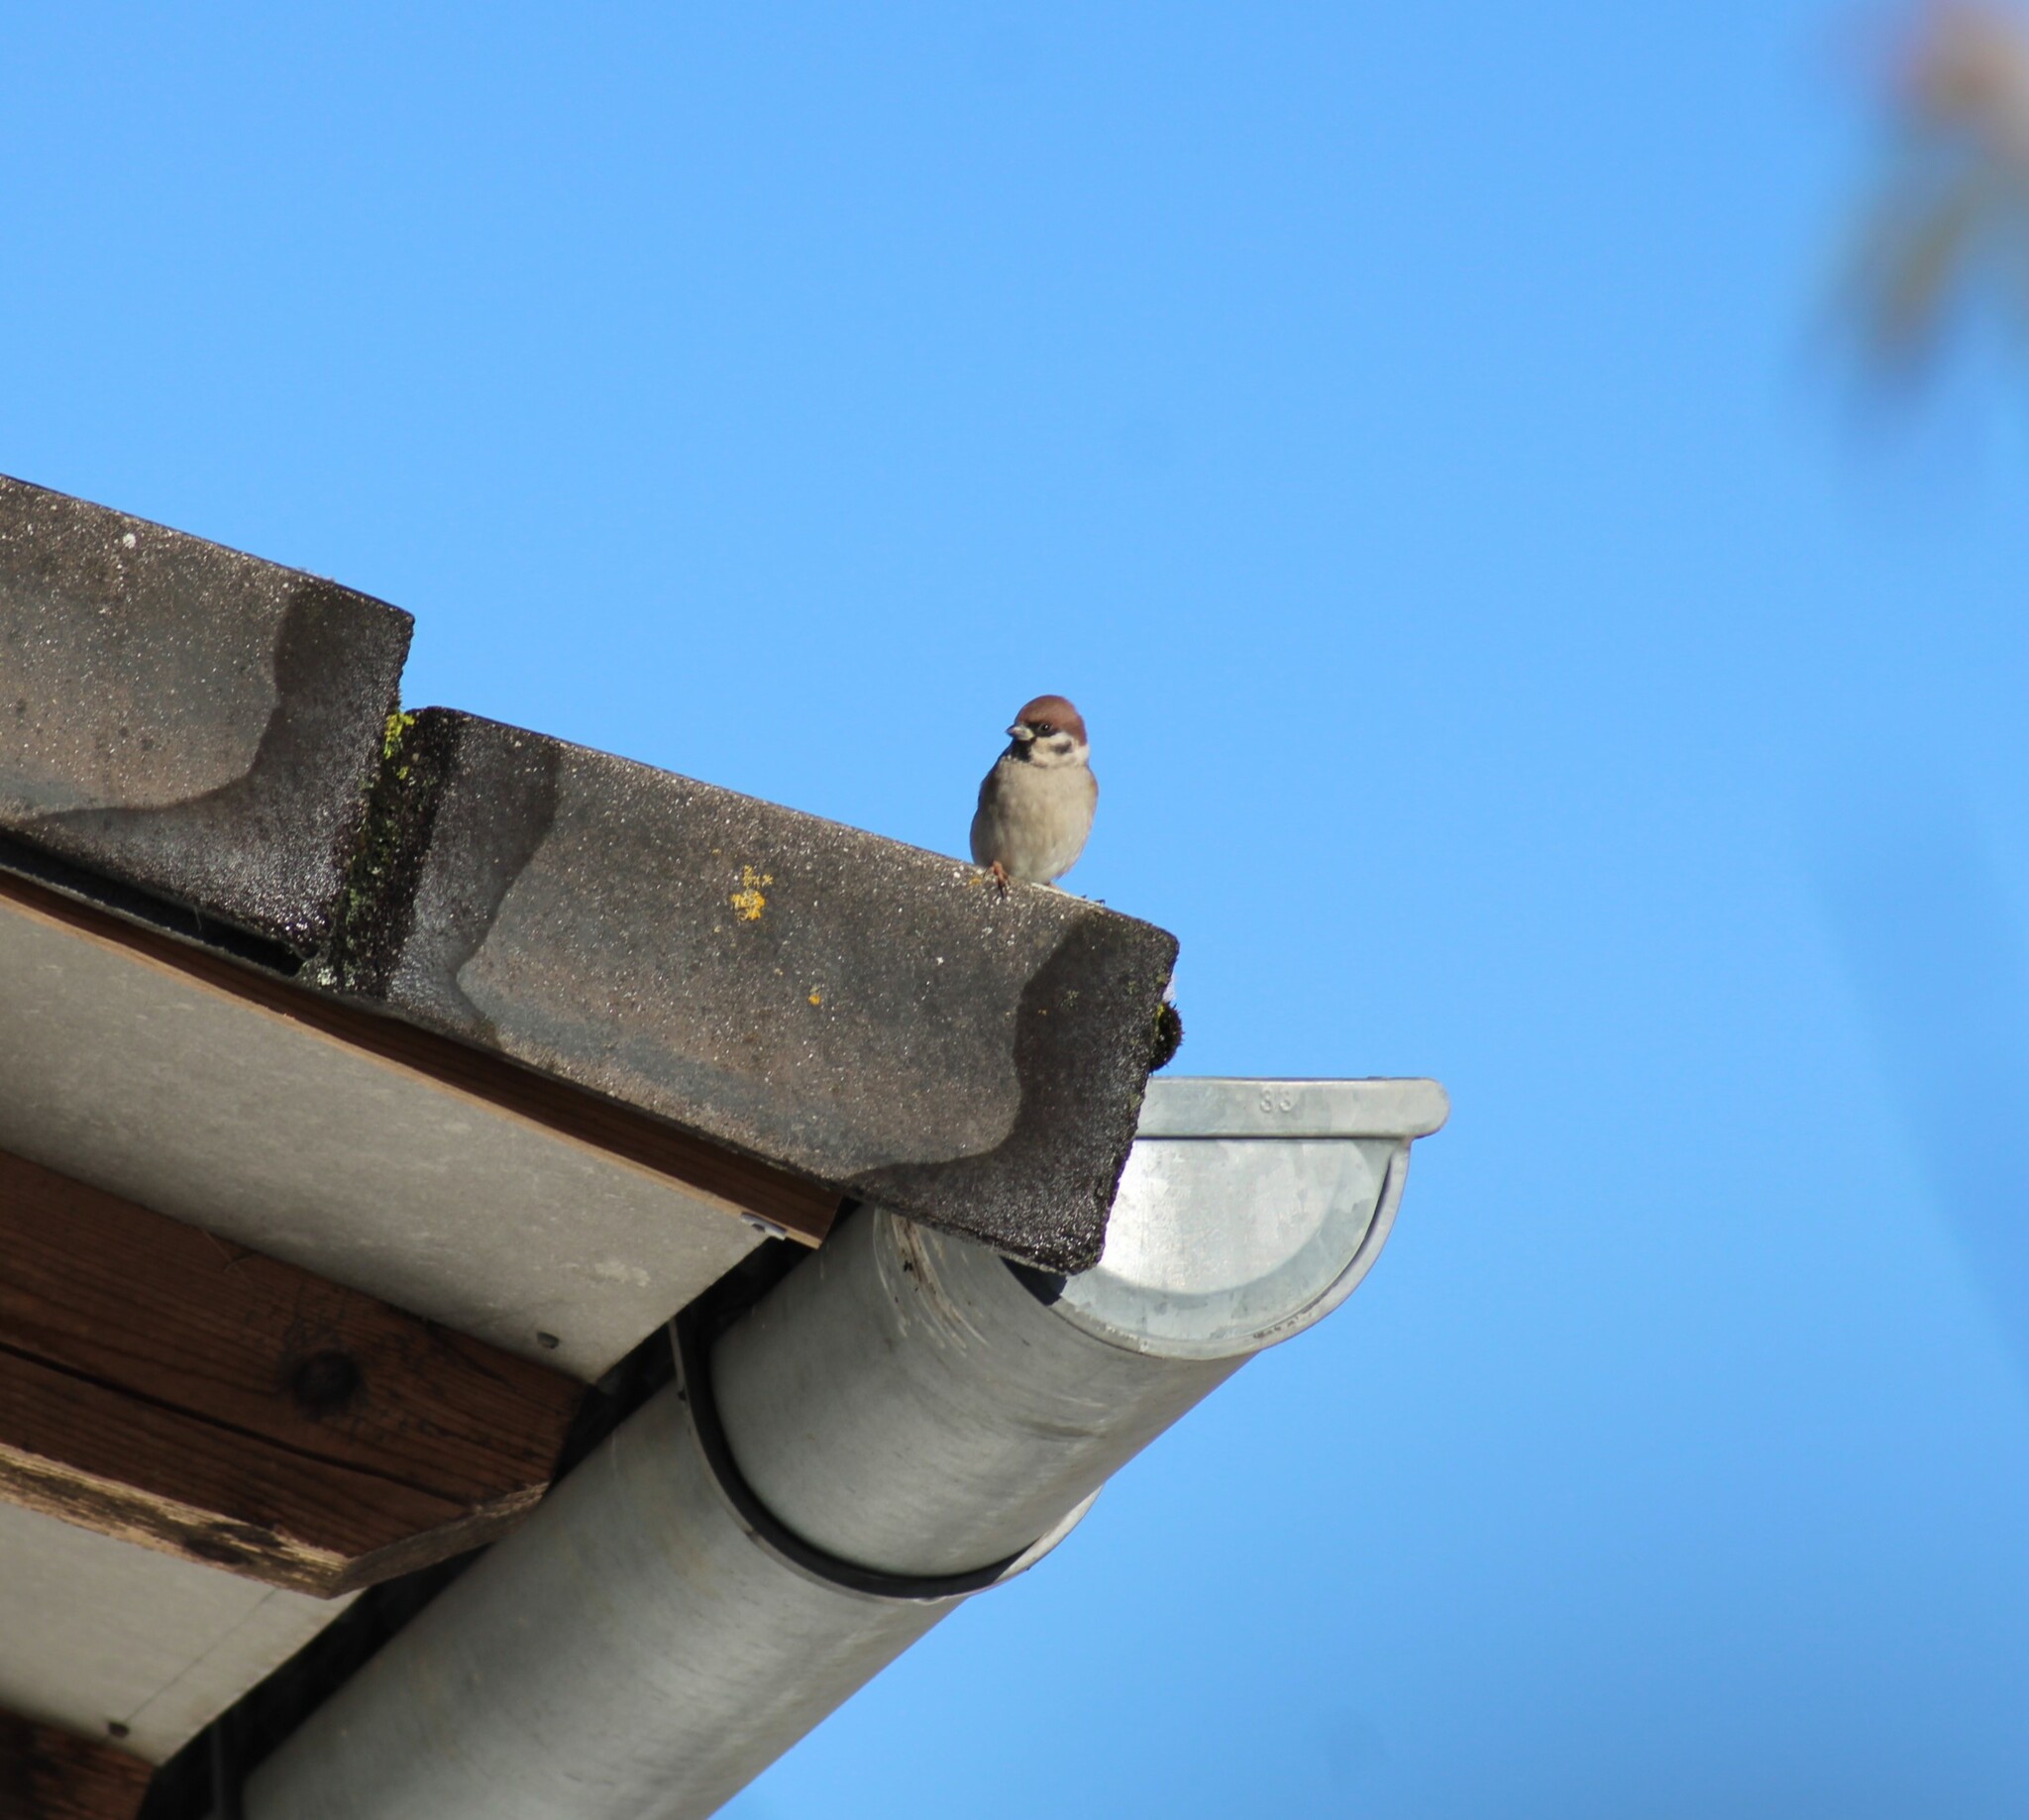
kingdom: Animalia
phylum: Chordata
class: Aves
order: Passeriformes
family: Passeridae
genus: Passer
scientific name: Passer montanus
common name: Eurasian tree sparrow
